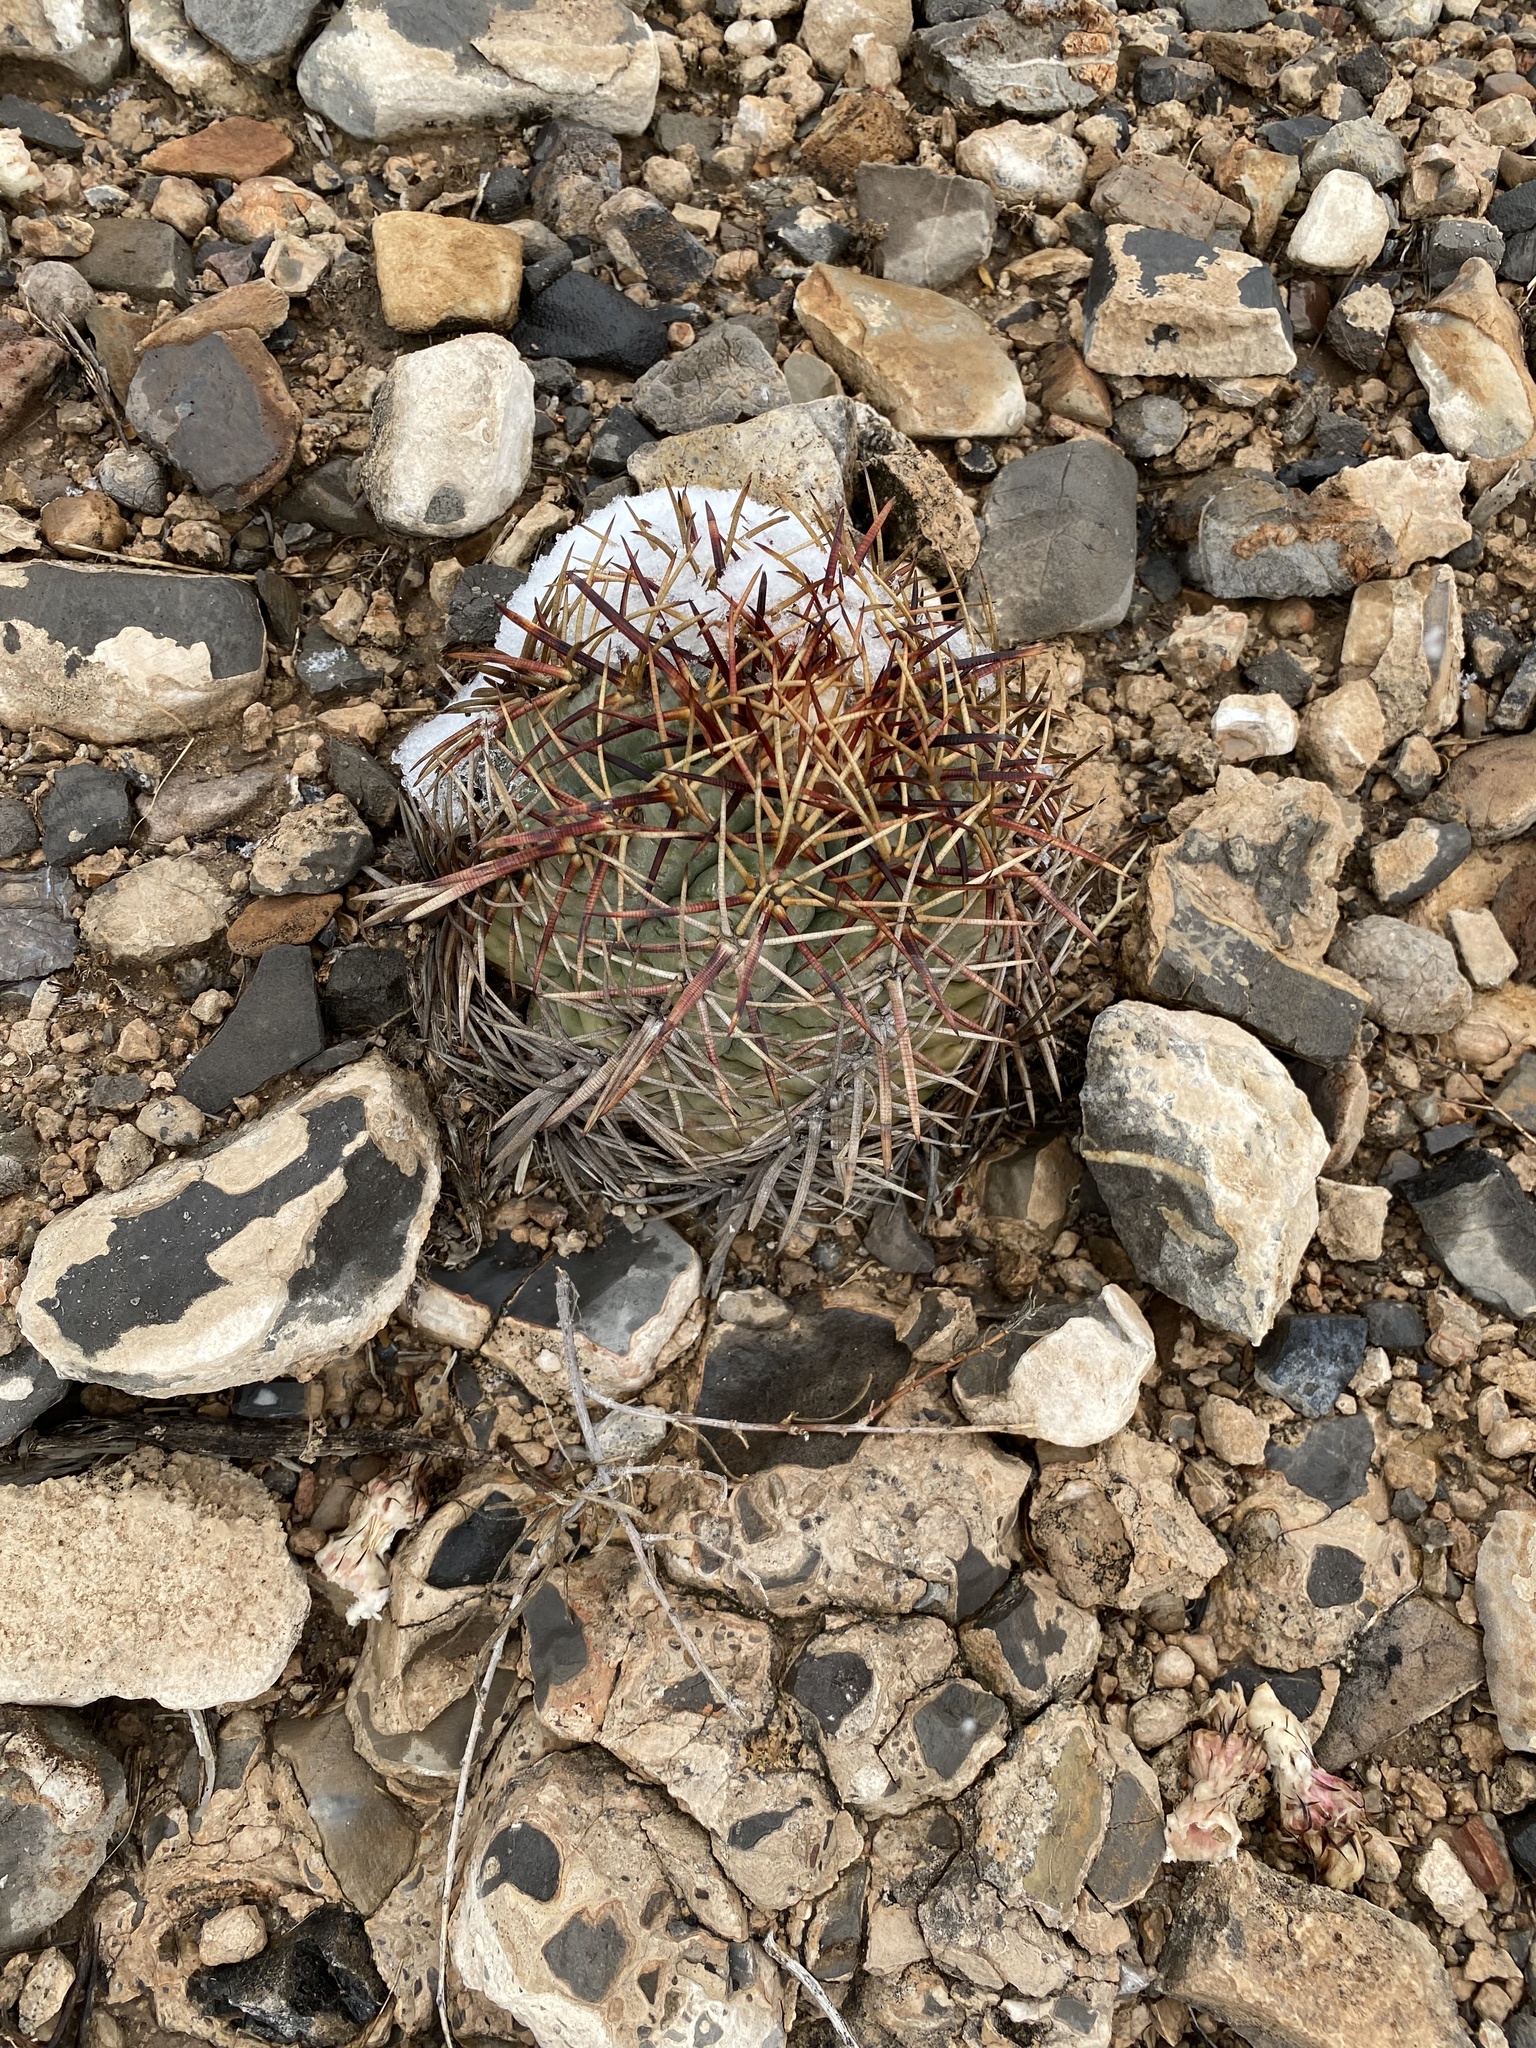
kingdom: Plantae
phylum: Tracheophyta
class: Magnoliopsida
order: Caryophyllales
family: Cactaceae
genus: Echinocactus
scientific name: Echinocactus horizonthalonius
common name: Devilshead
